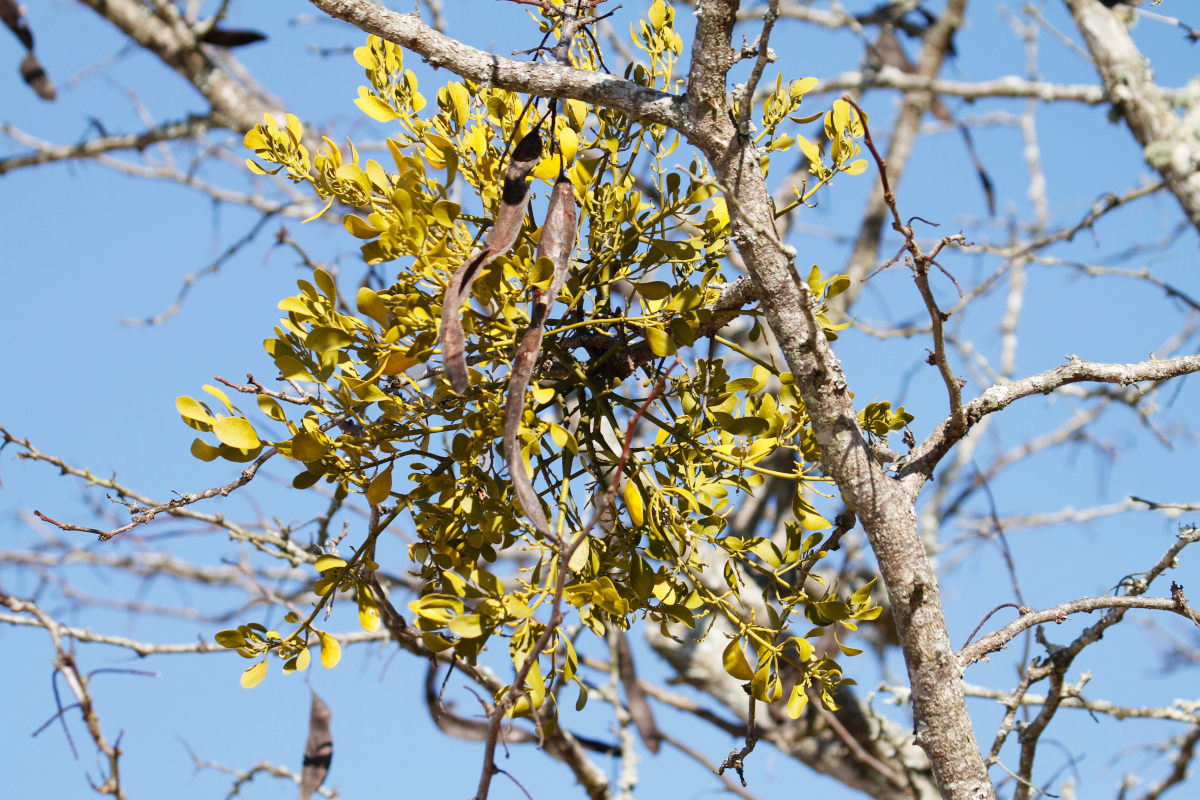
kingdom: Plantae
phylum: Tracheophyta
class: Magnoliopsida
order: Santalales
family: Viscaceae
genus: Phoradendron
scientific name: Phoradendron leucarpum
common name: Pacific mistletoe
